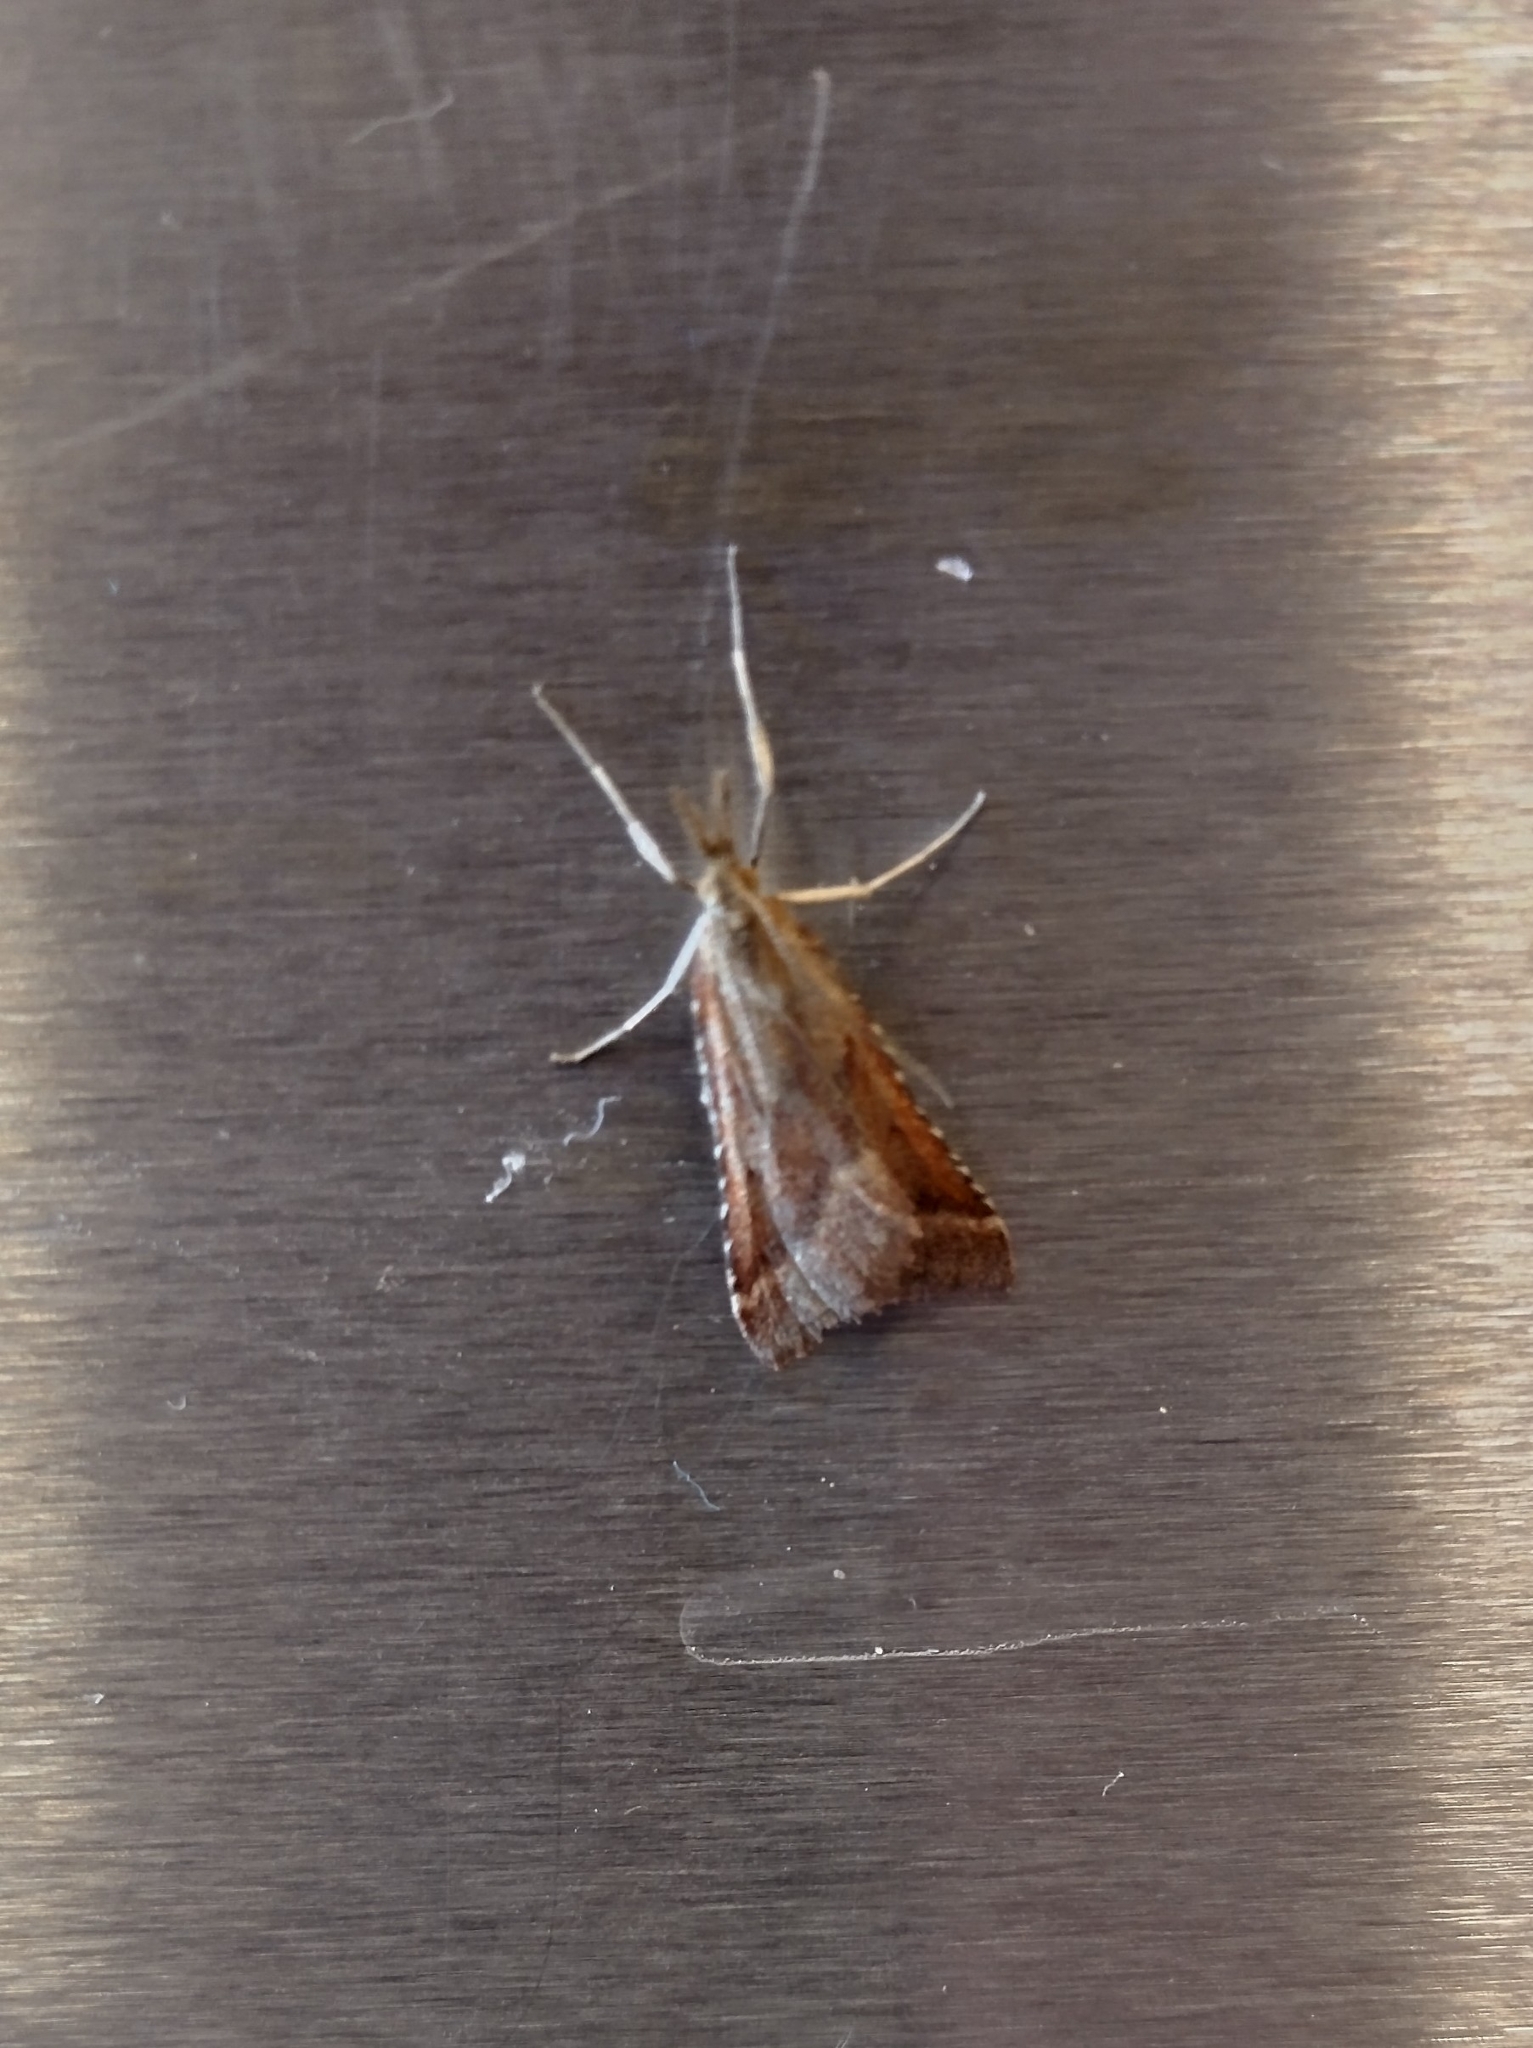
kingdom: Animalia
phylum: Arthropoda
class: Insecta
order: Lepidoptera
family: Pyralidae
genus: Synaphe
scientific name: Synaphe punctalis
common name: Long-legged tabby
